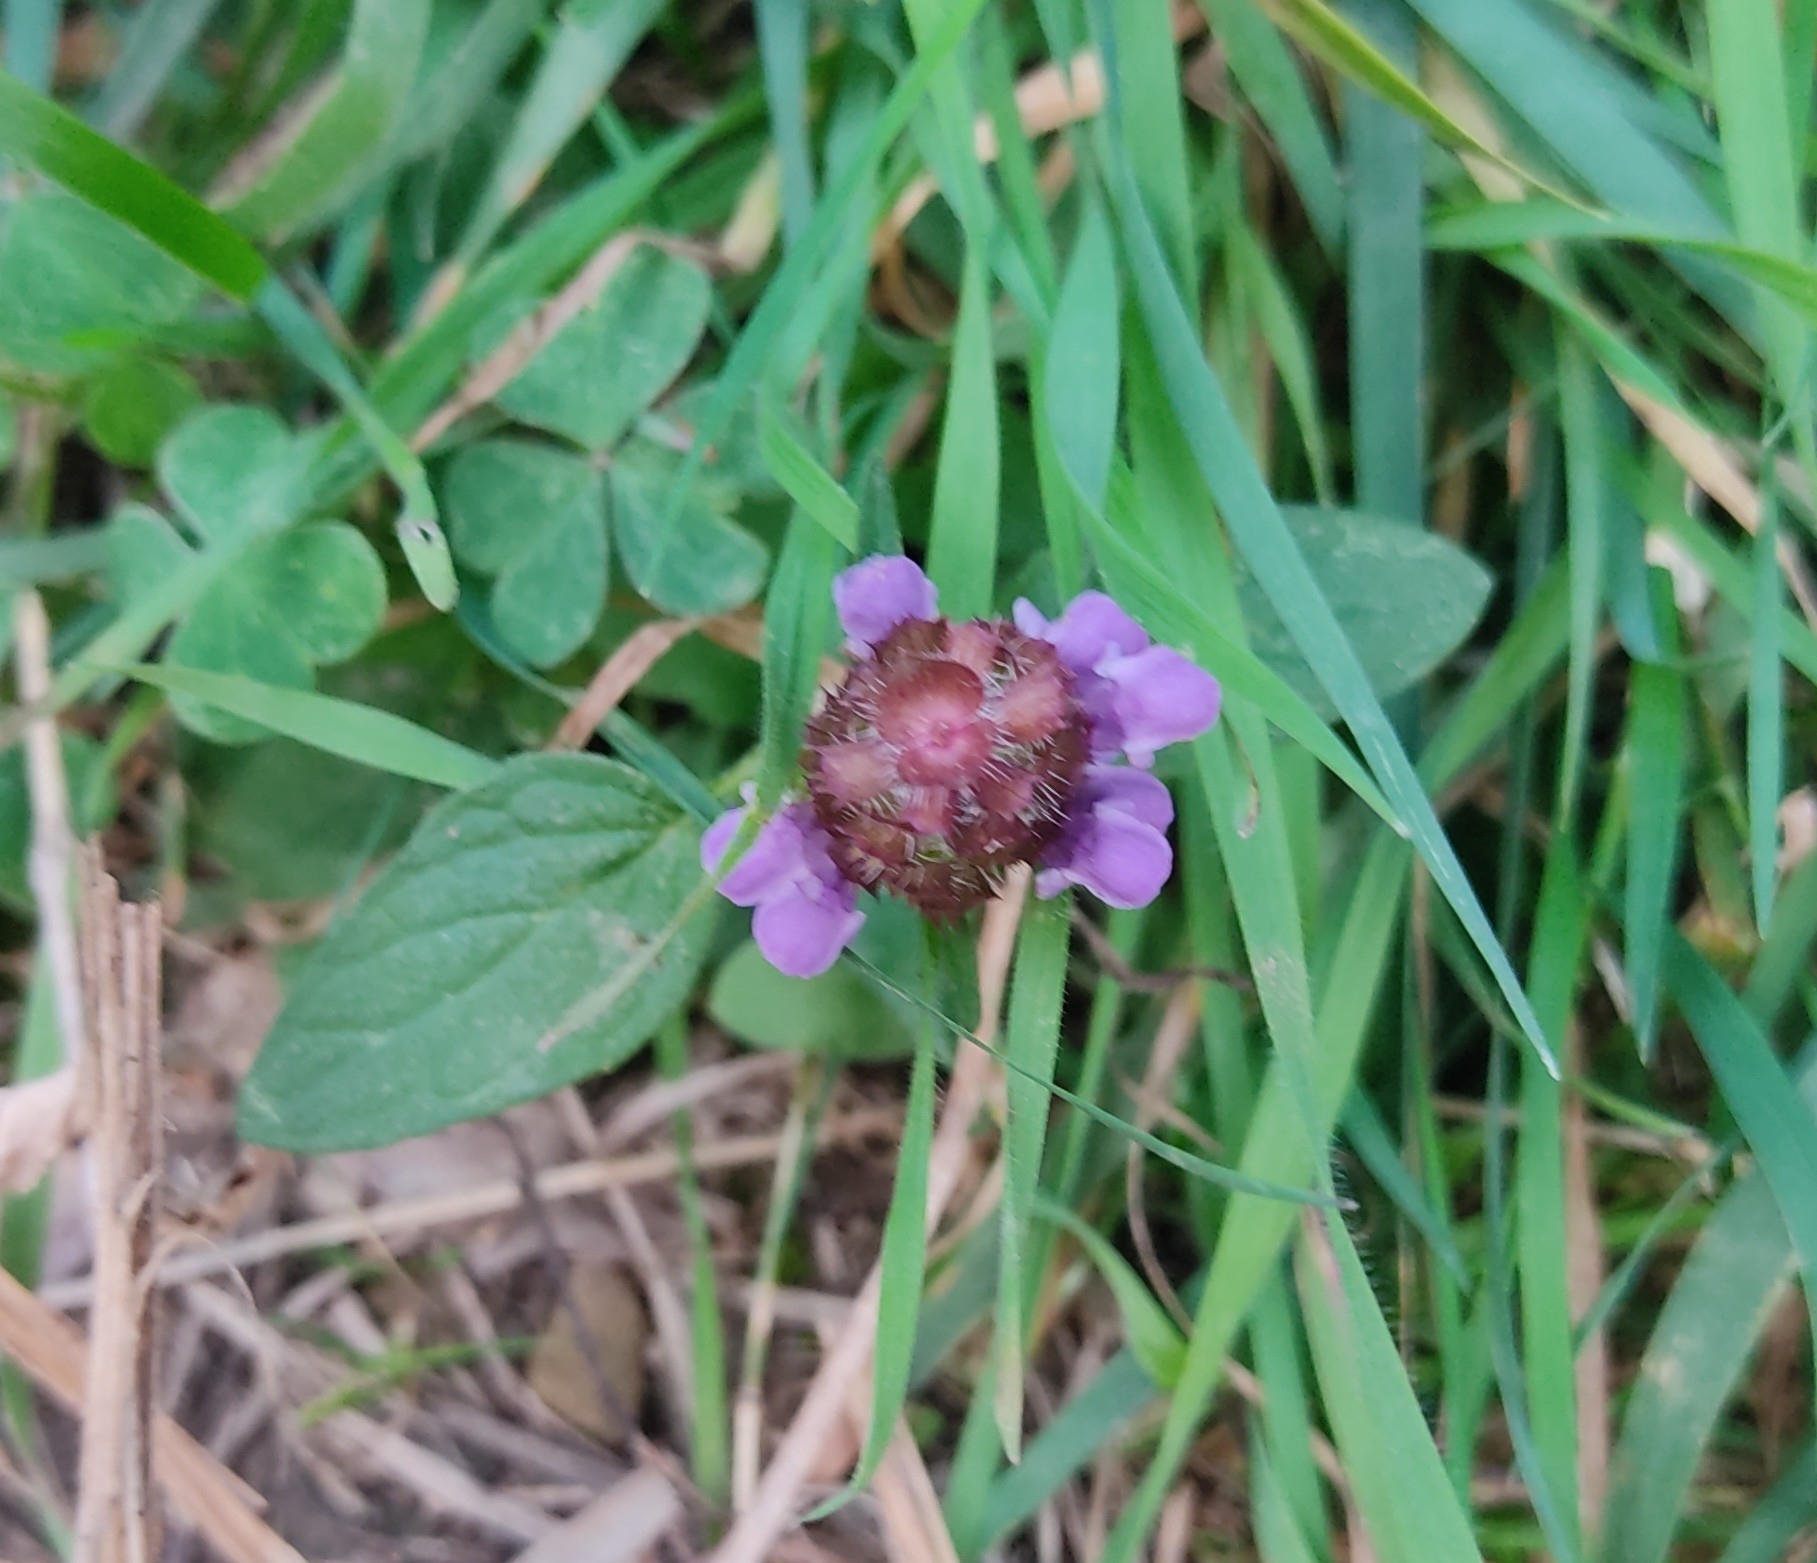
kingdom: Plantae
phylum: Tracheophyta
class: Magnoliopsida
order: Lamiales
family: Lamiaceae
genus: Prunella
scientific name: Prunella vulgaris
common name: Heal-all
